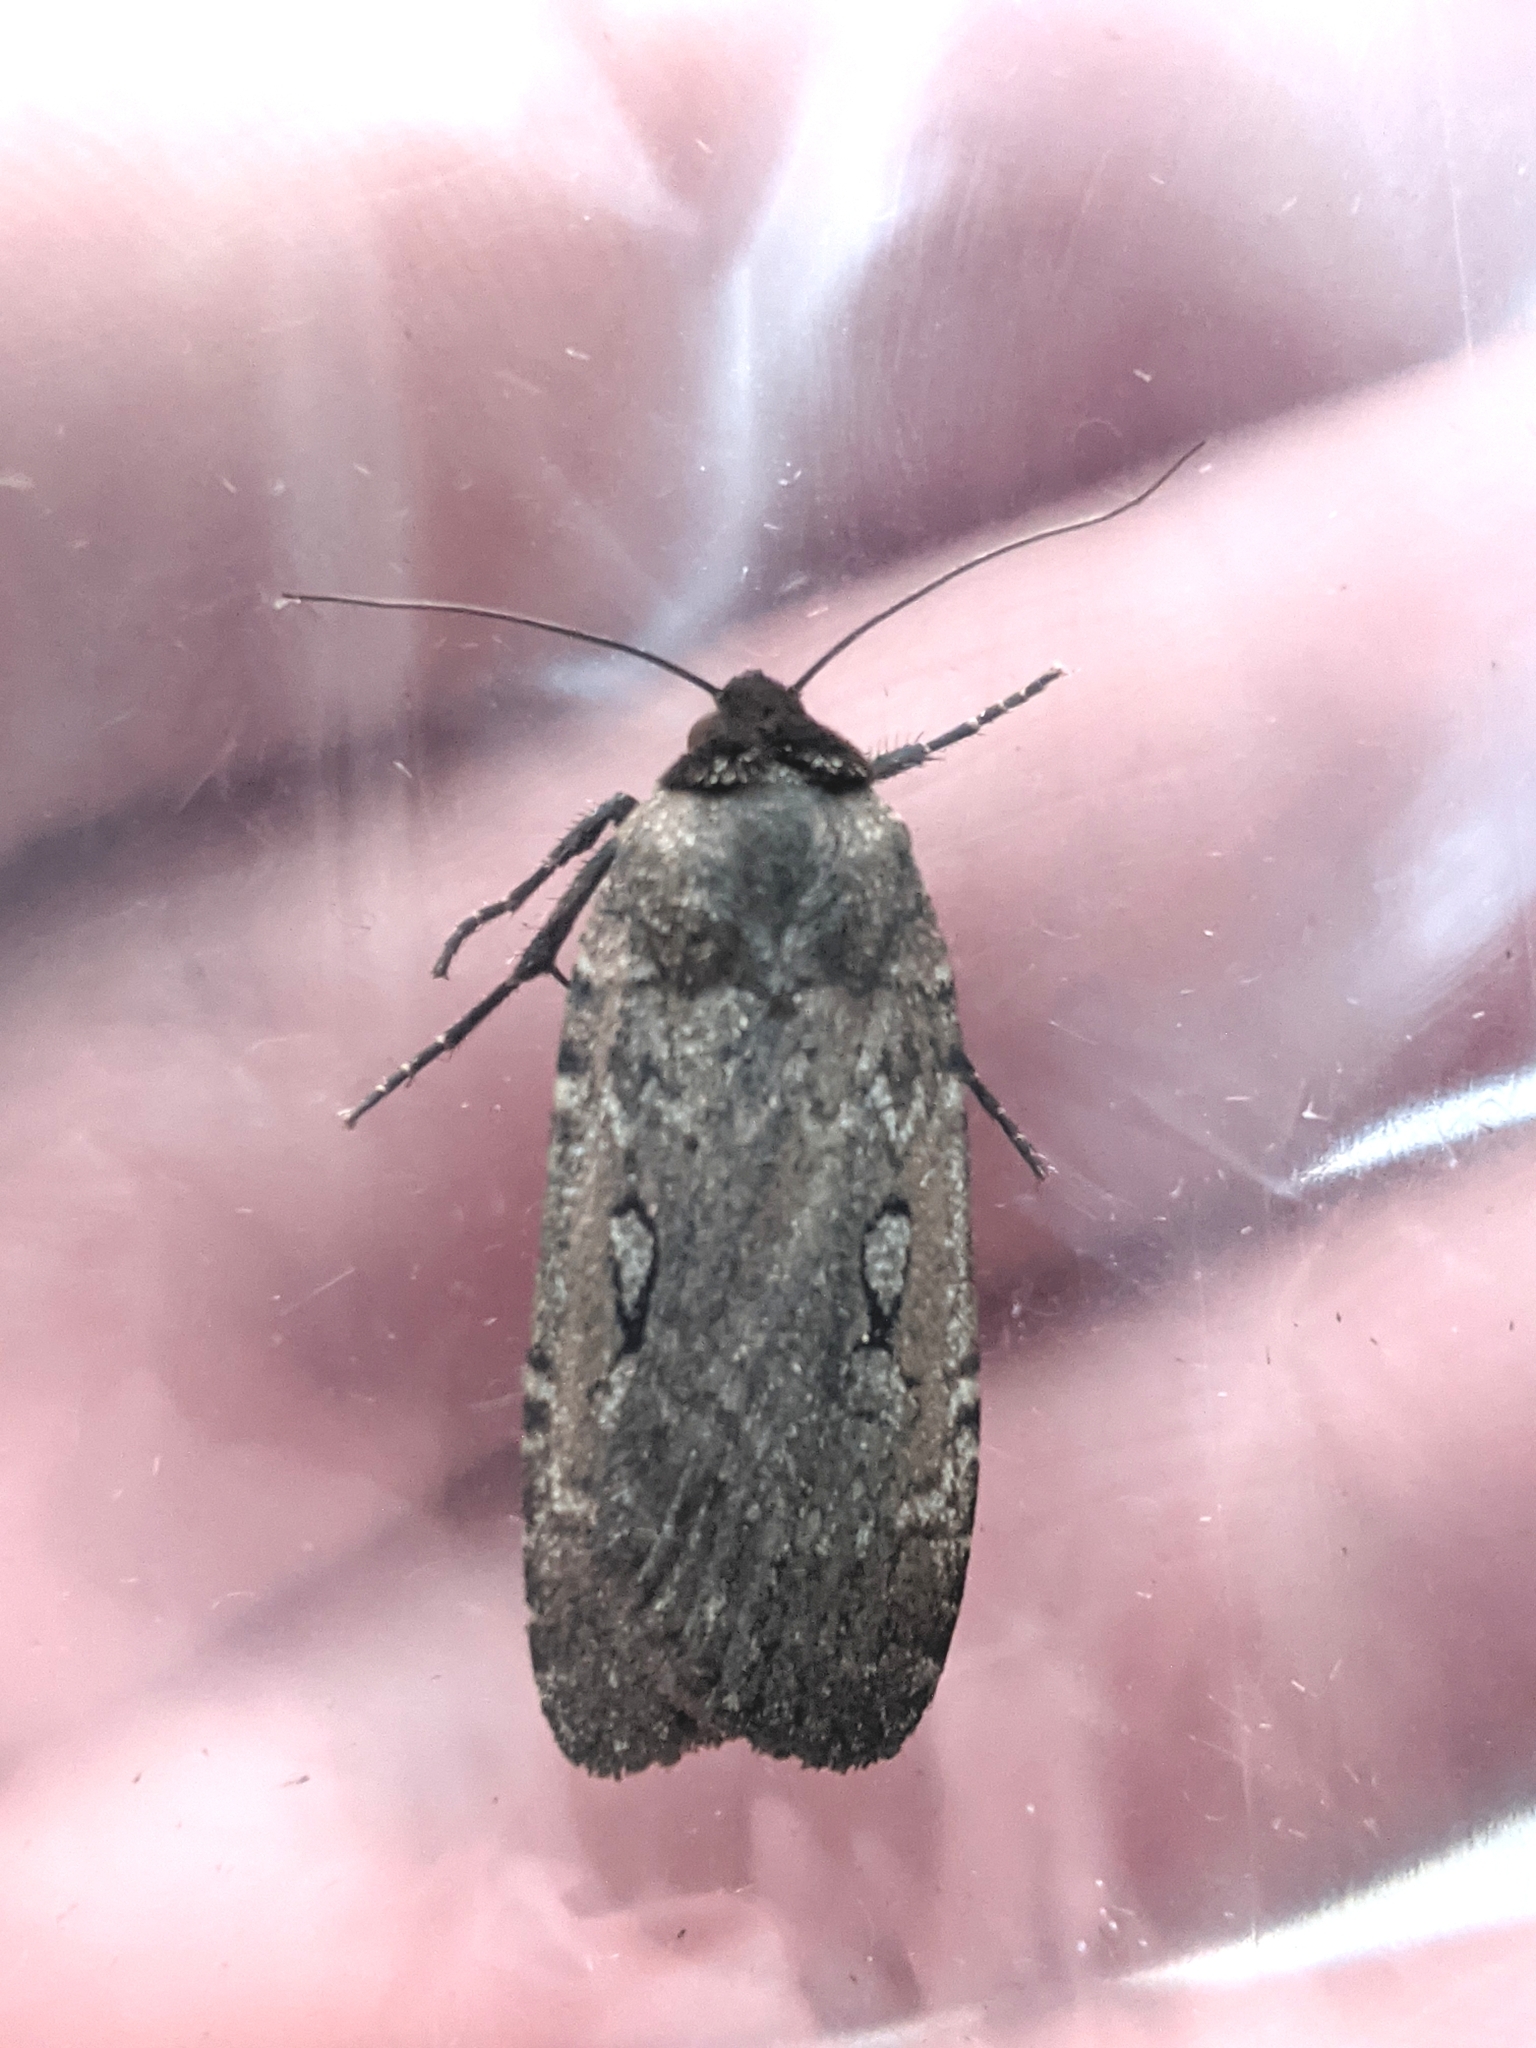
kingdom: Animalia
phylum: Arthropoda
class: Insecta
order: Lepidoptera
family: Noctuidae
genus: Spaelotis
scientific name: Spaelotis clandestina
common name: Clandestine dart
